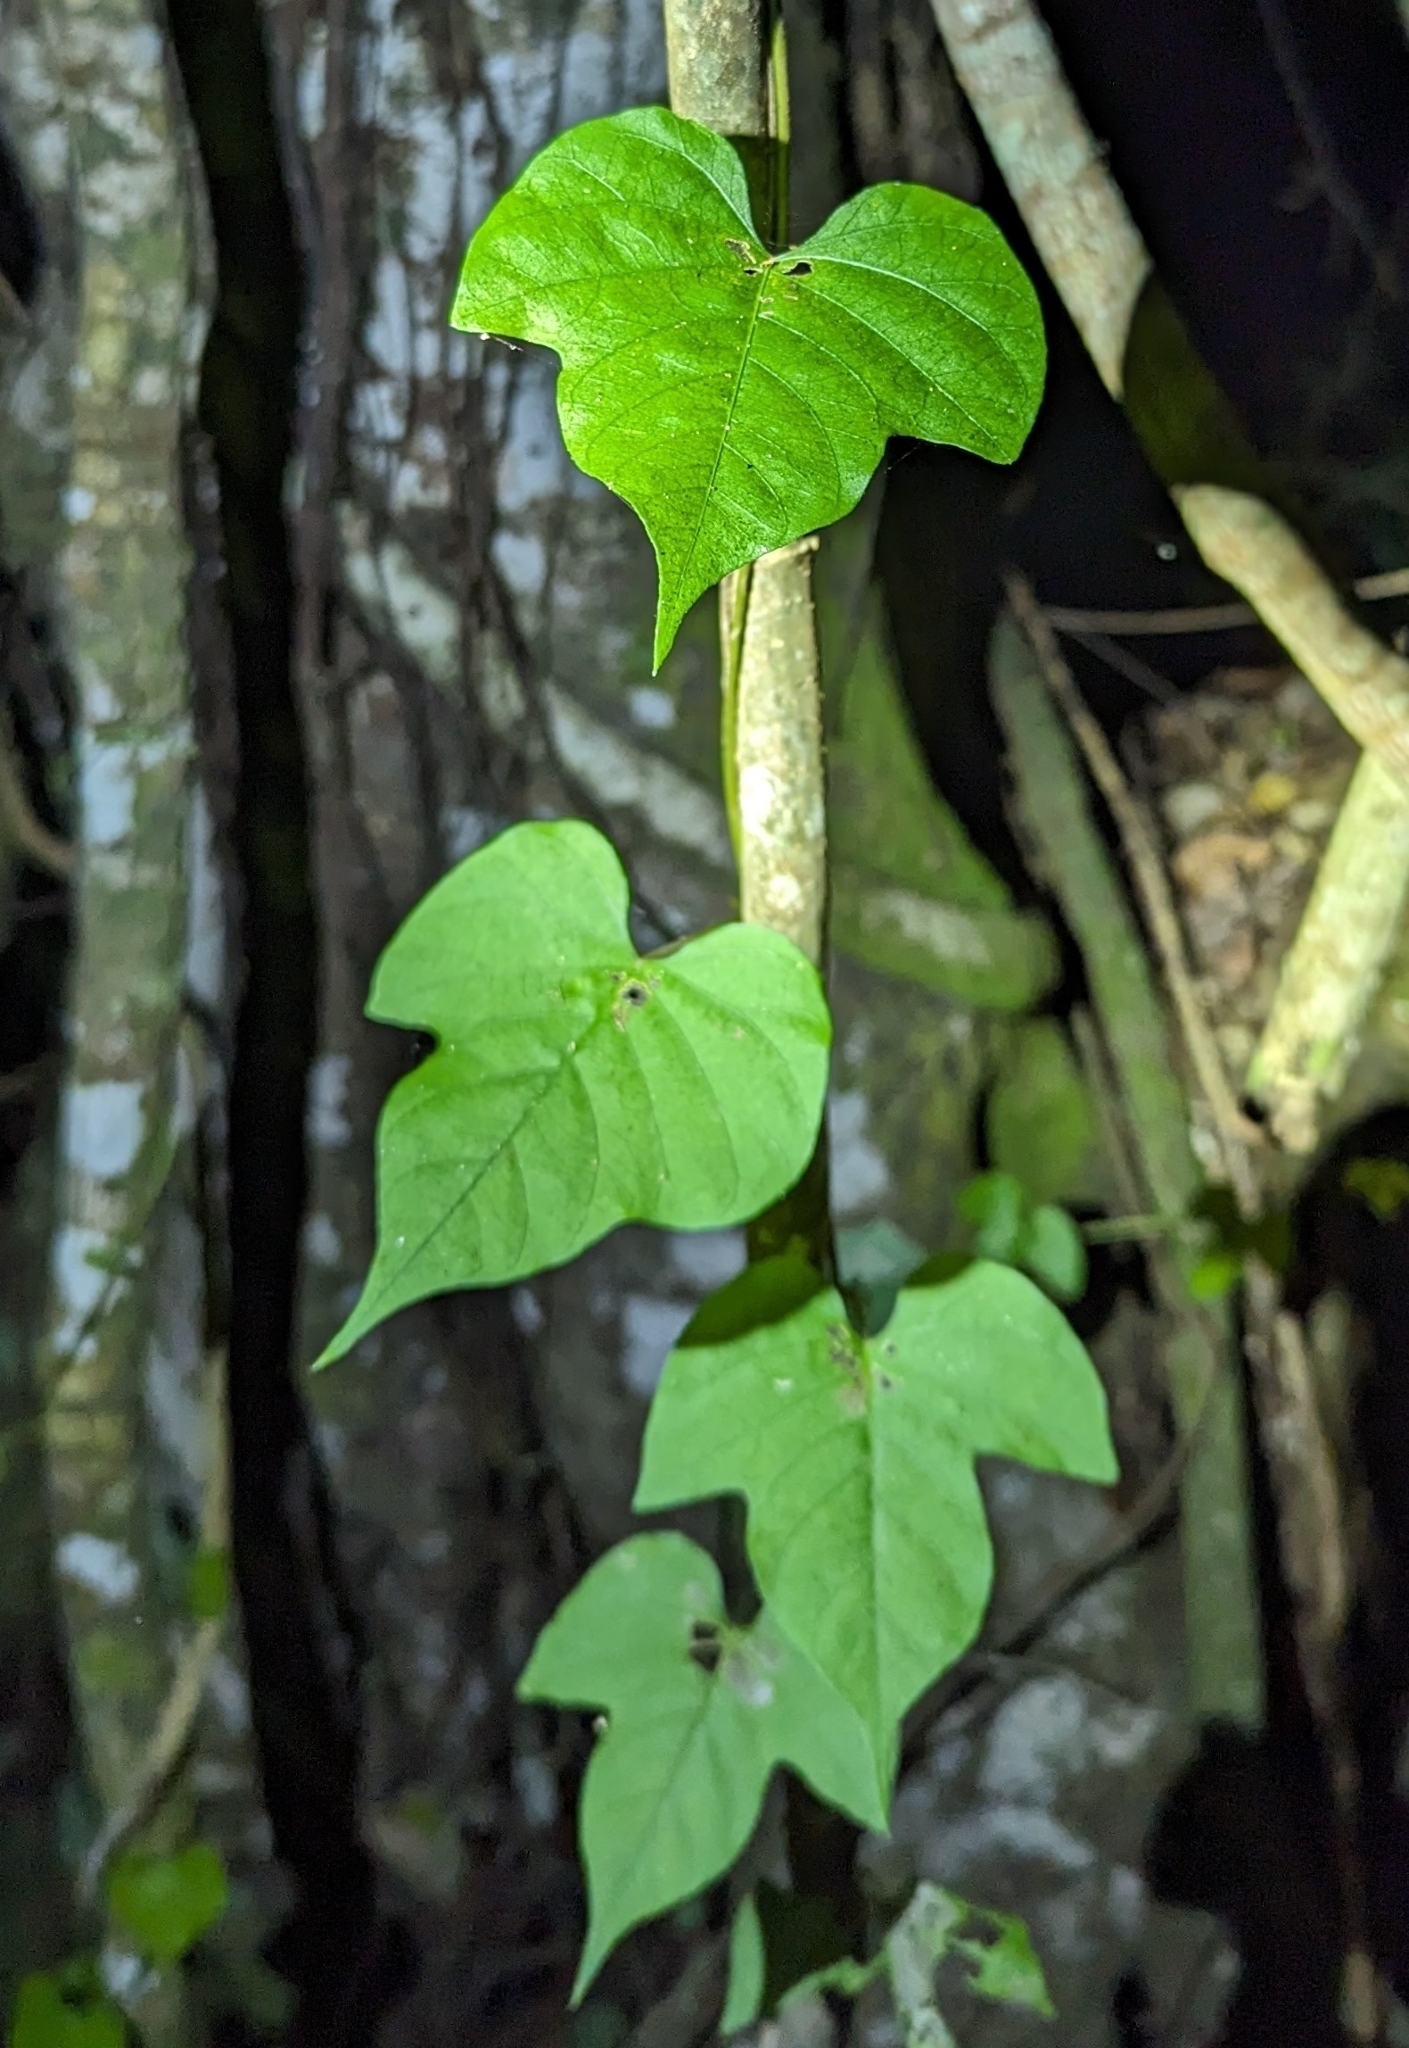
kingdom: Plantae
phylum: Tracheophyta
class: Magnoliopsida
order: Solanales
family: Convolvulaceae
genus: Ipomoea
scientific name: Ipomoea indica
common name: Blue dawnflower
